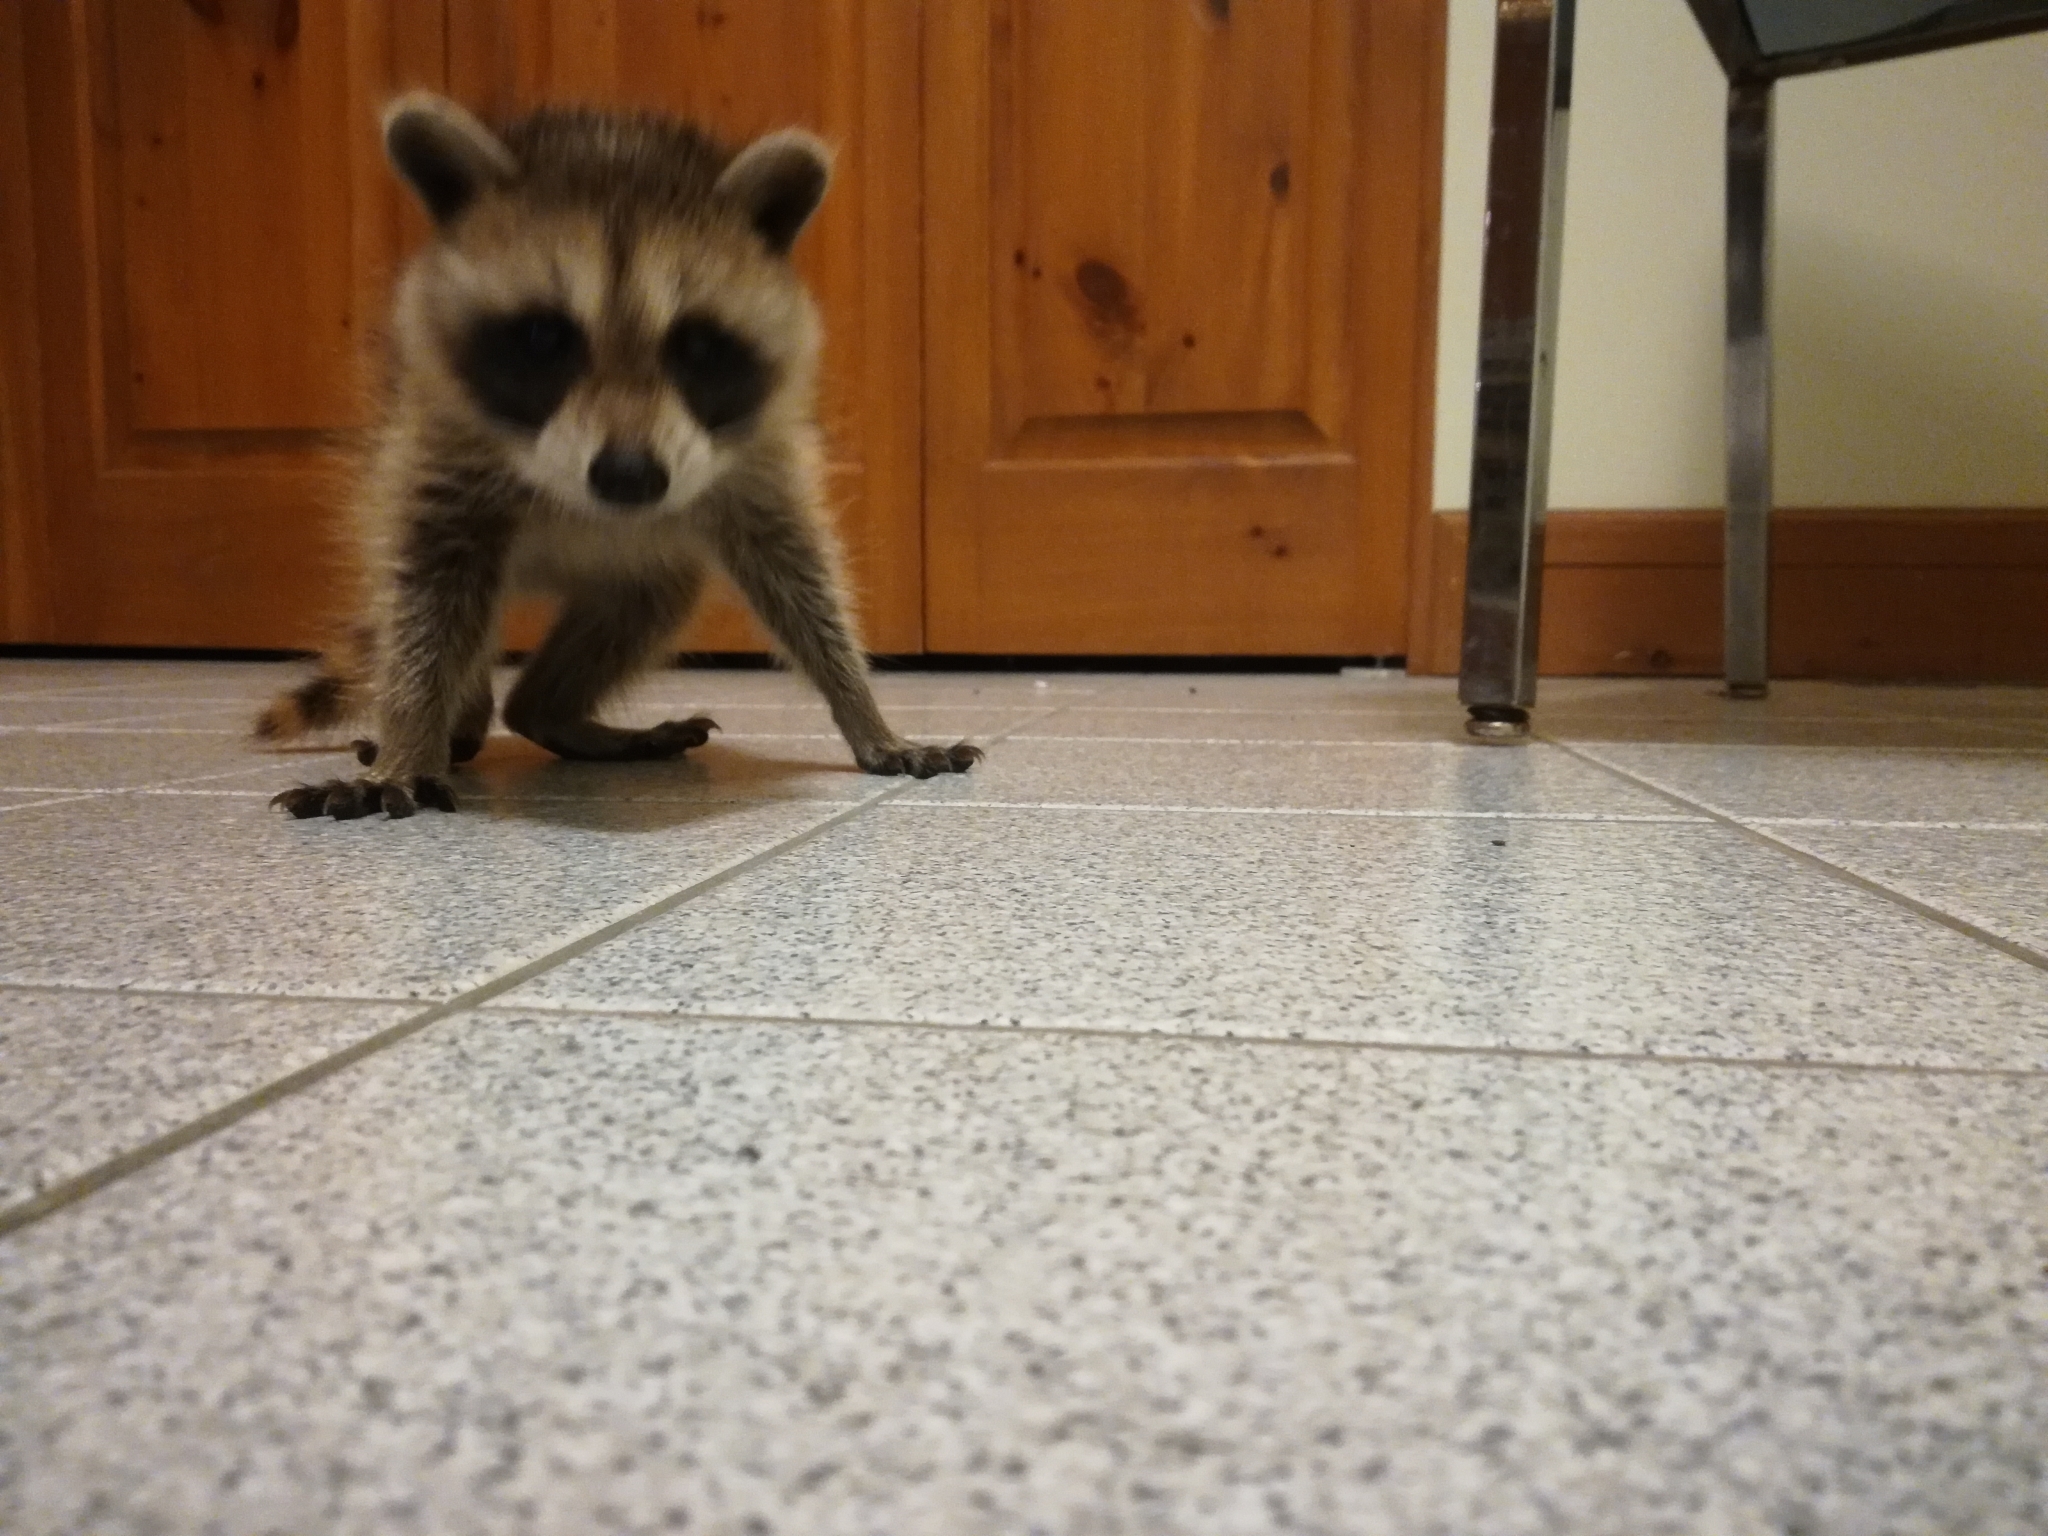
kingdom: Animalia
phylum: Chordata
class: Mammalia
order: Carnivora
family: Procyonidae
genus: Procyon
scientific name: Procyon lotor
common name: Raccoon
